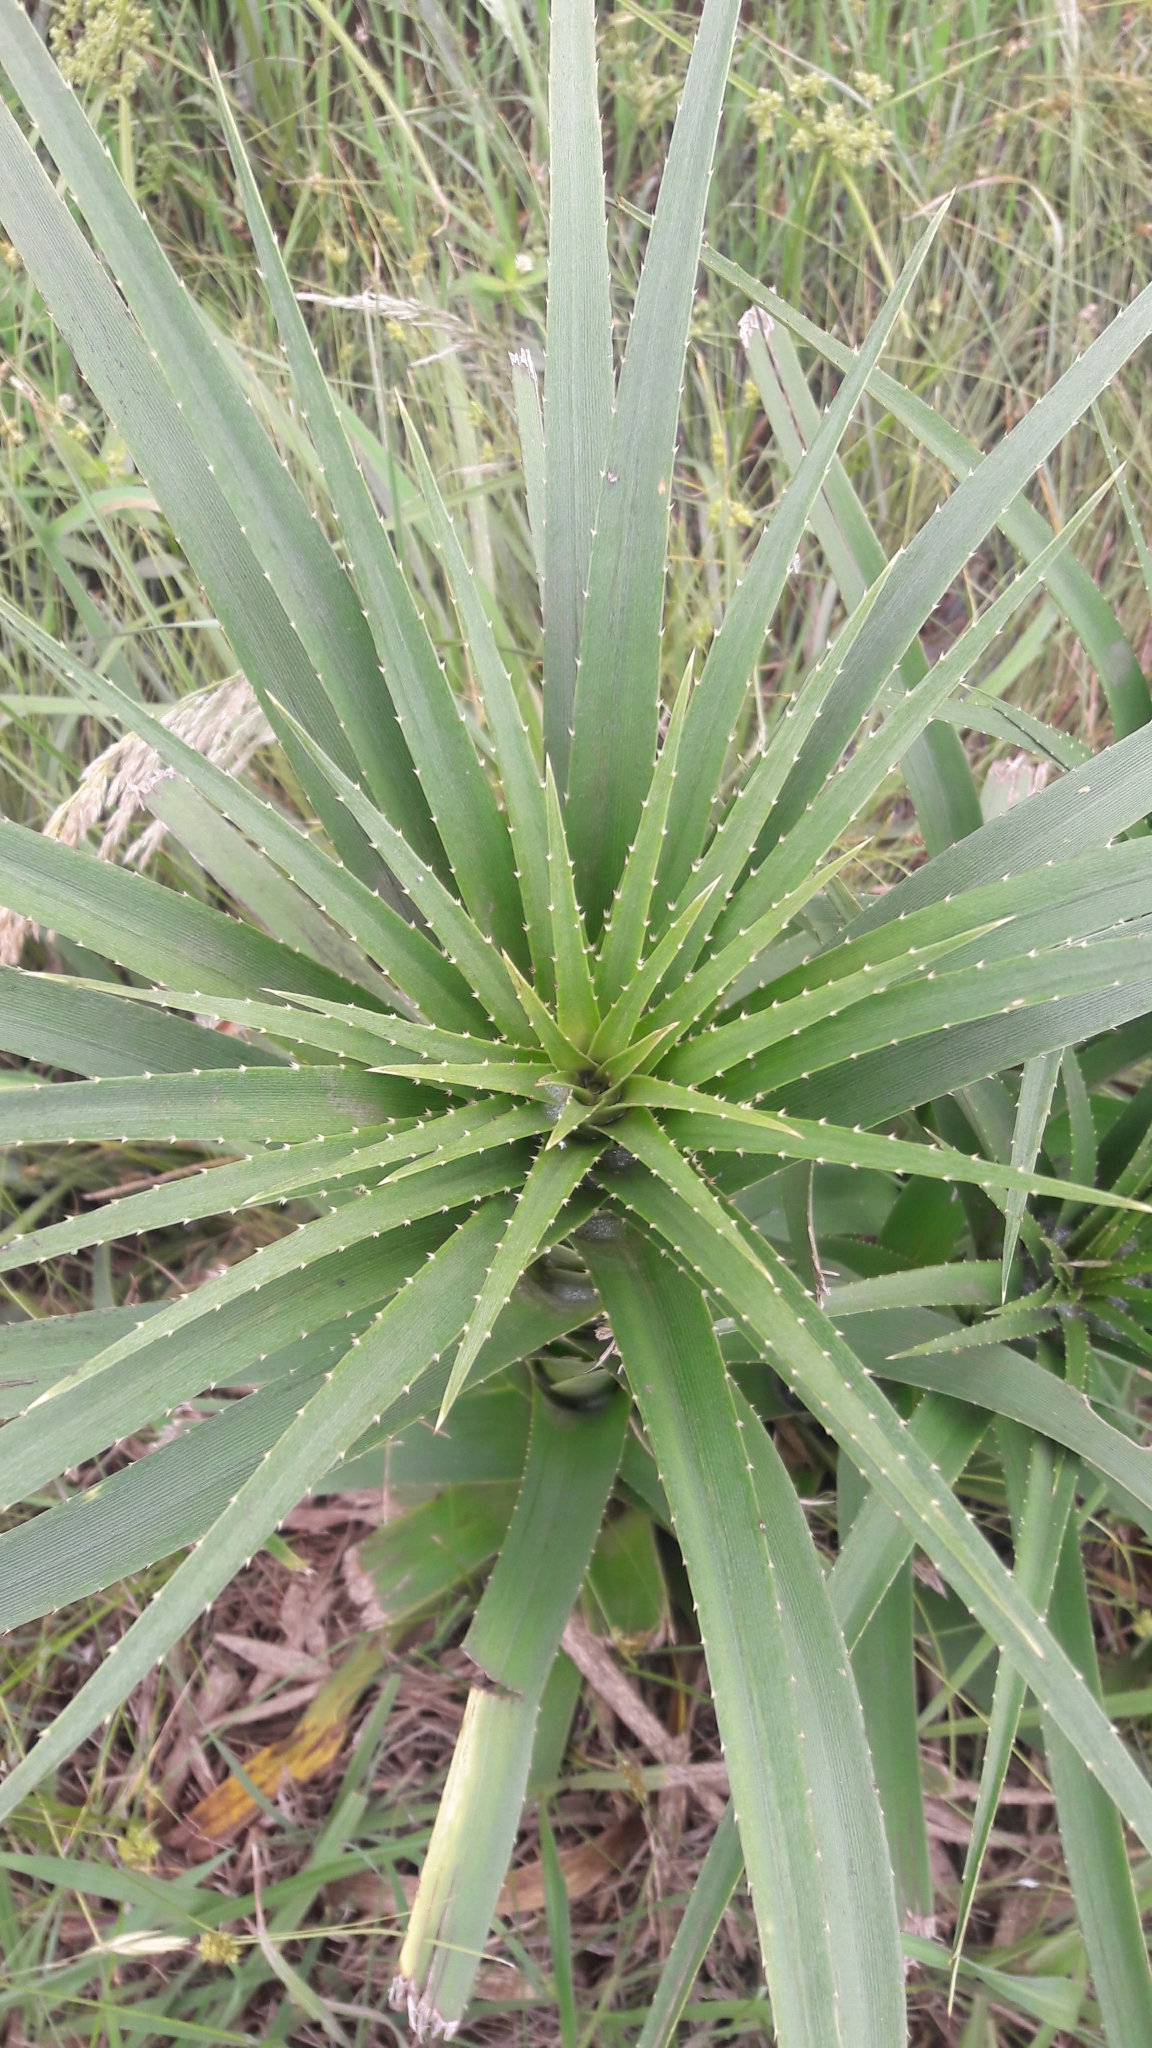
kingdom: Plantae
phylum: Tracheophyta
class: Magnoliopsida
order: Apiales
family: Apiaceae
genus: Eryngium
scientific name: Eryngium horridum
